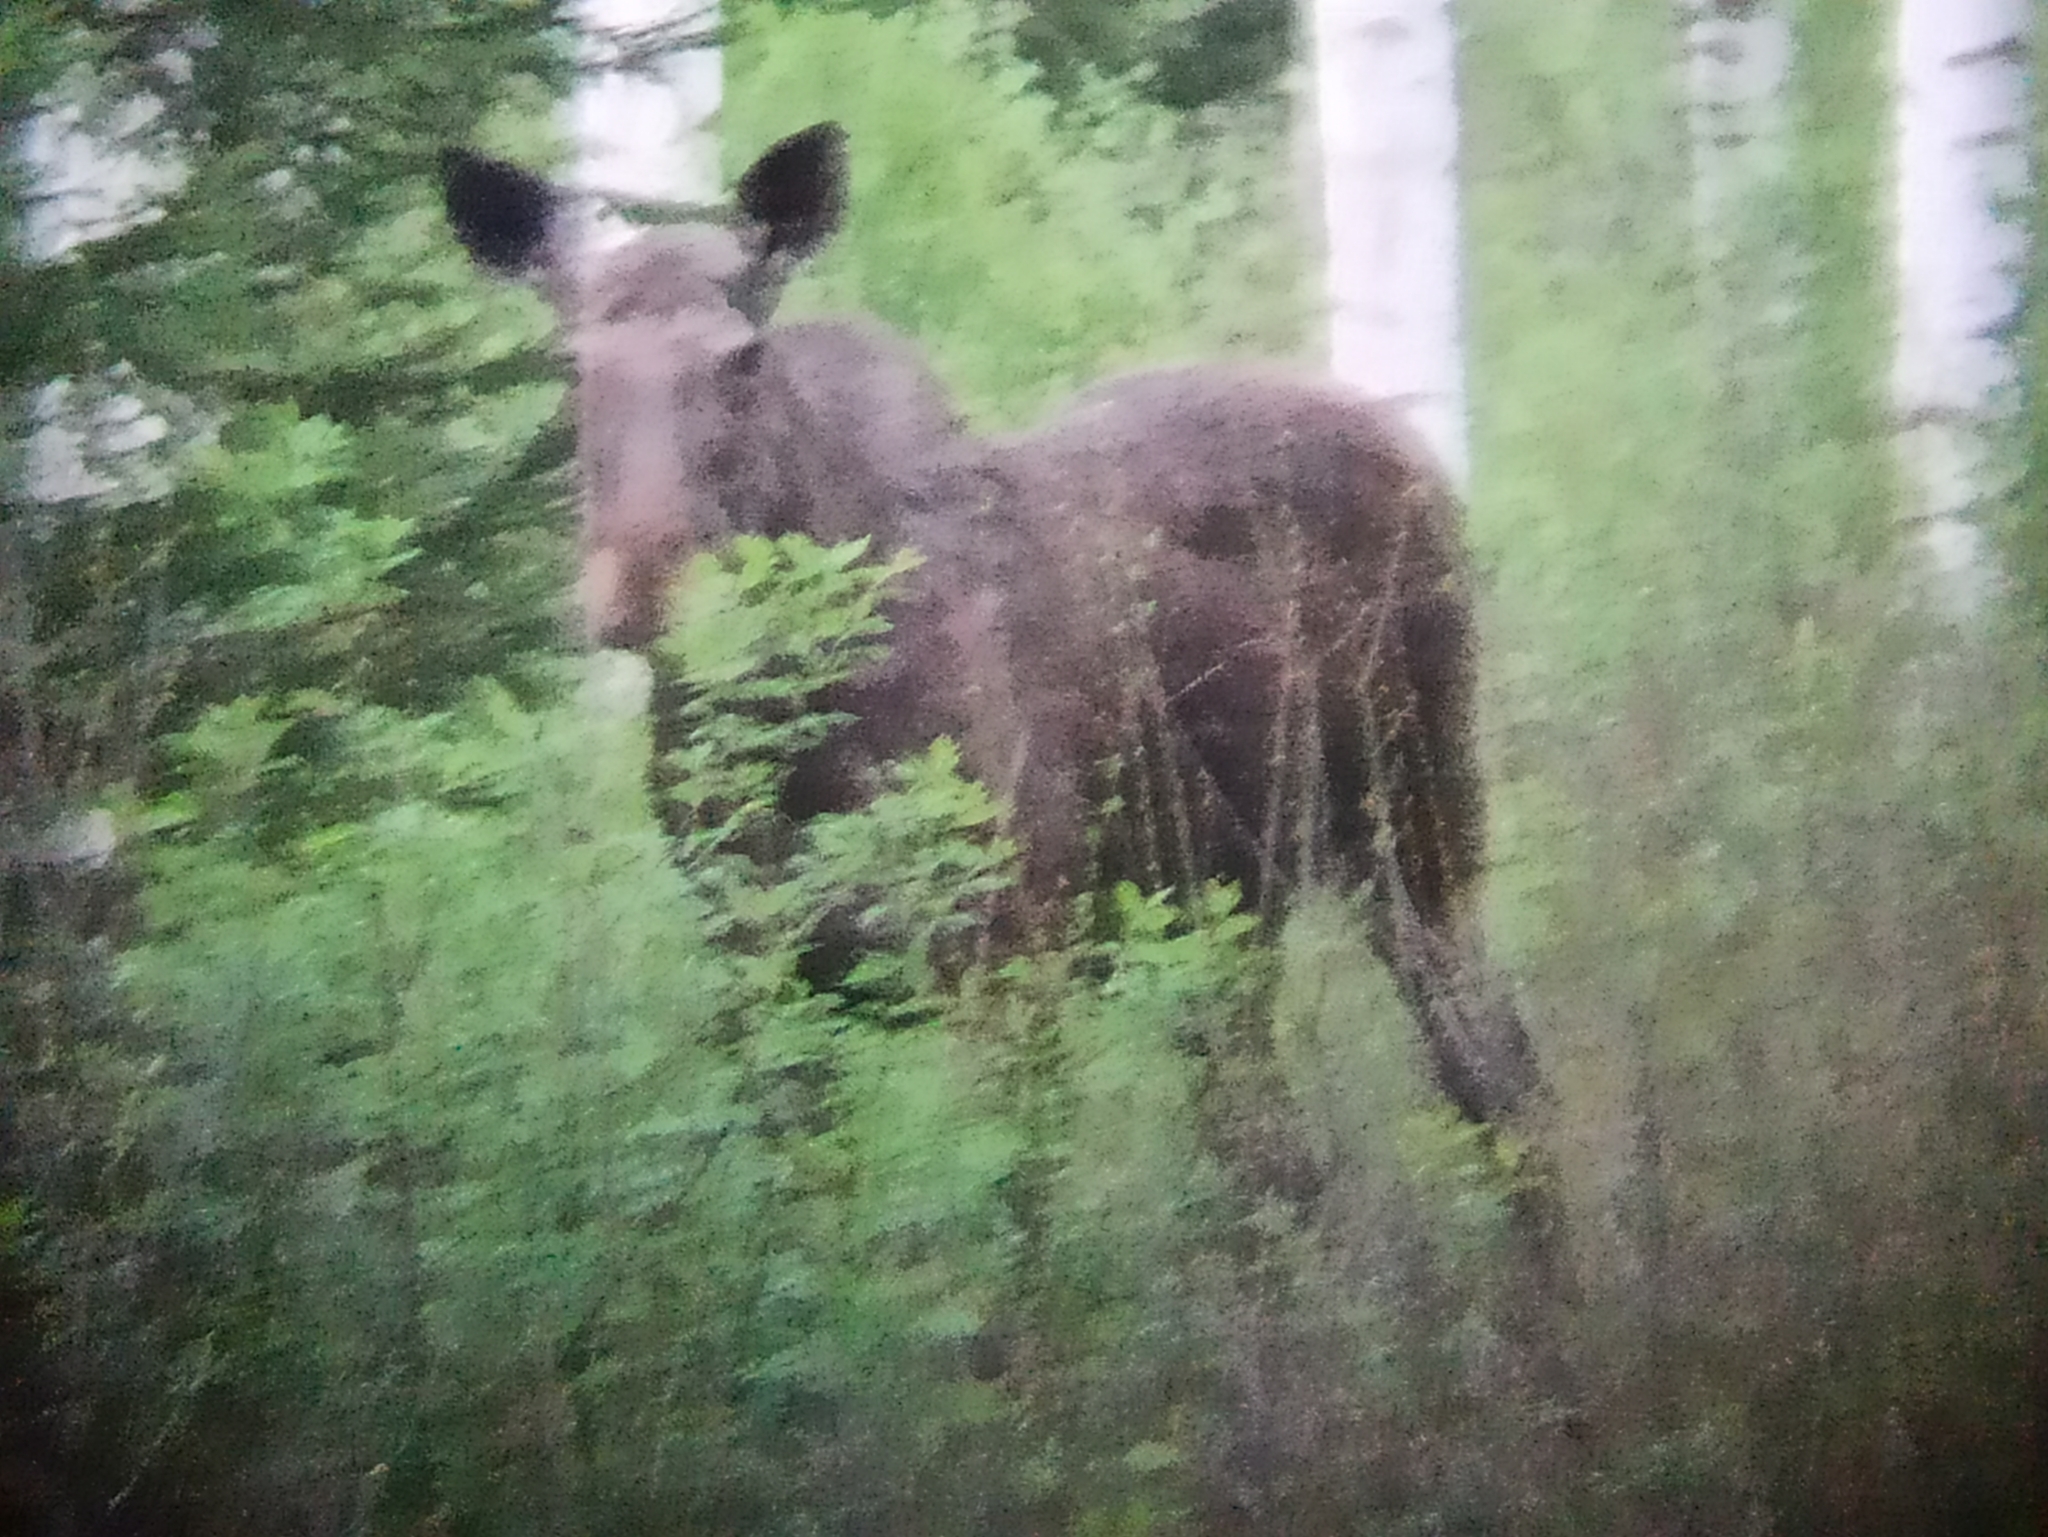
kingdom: Animalia
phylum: Chordata
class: Mammalia
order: Artiodactyla
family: Cervidae
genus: Alces
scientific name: Alces alces
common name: Moose
